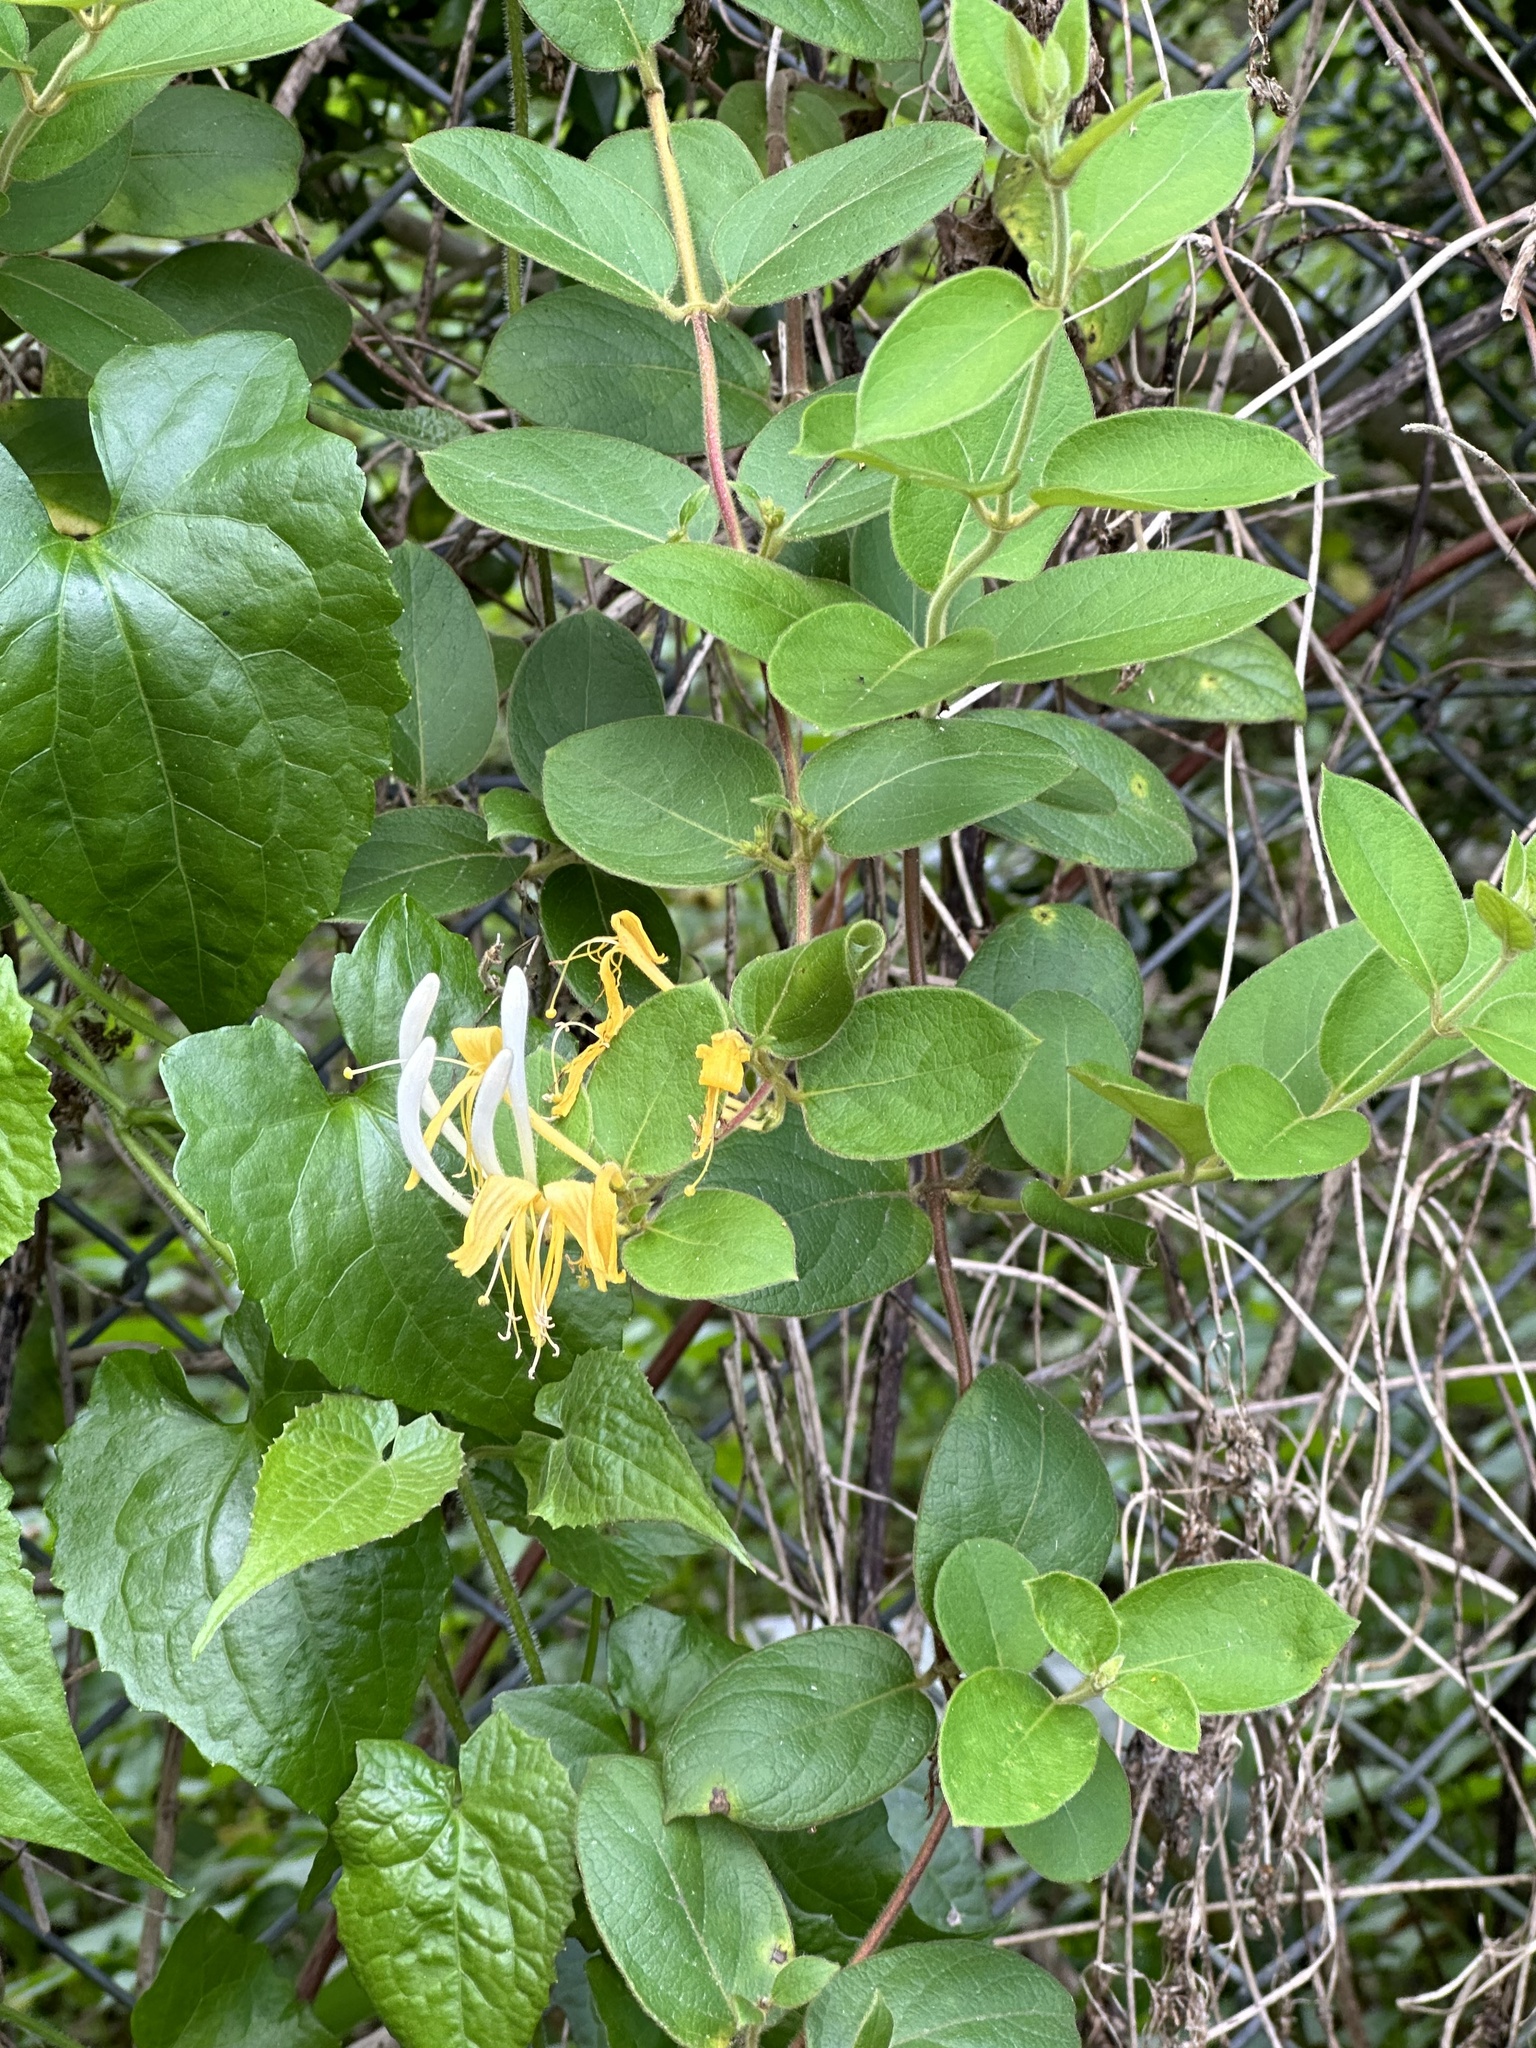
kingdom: Plantae
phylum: Tracheophyta
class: Magnoliopsida
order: Dipsacales
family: Caprifoliaceae
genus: Lonicera
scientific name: Lonicera japonica
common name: Japanese honeysuckle
